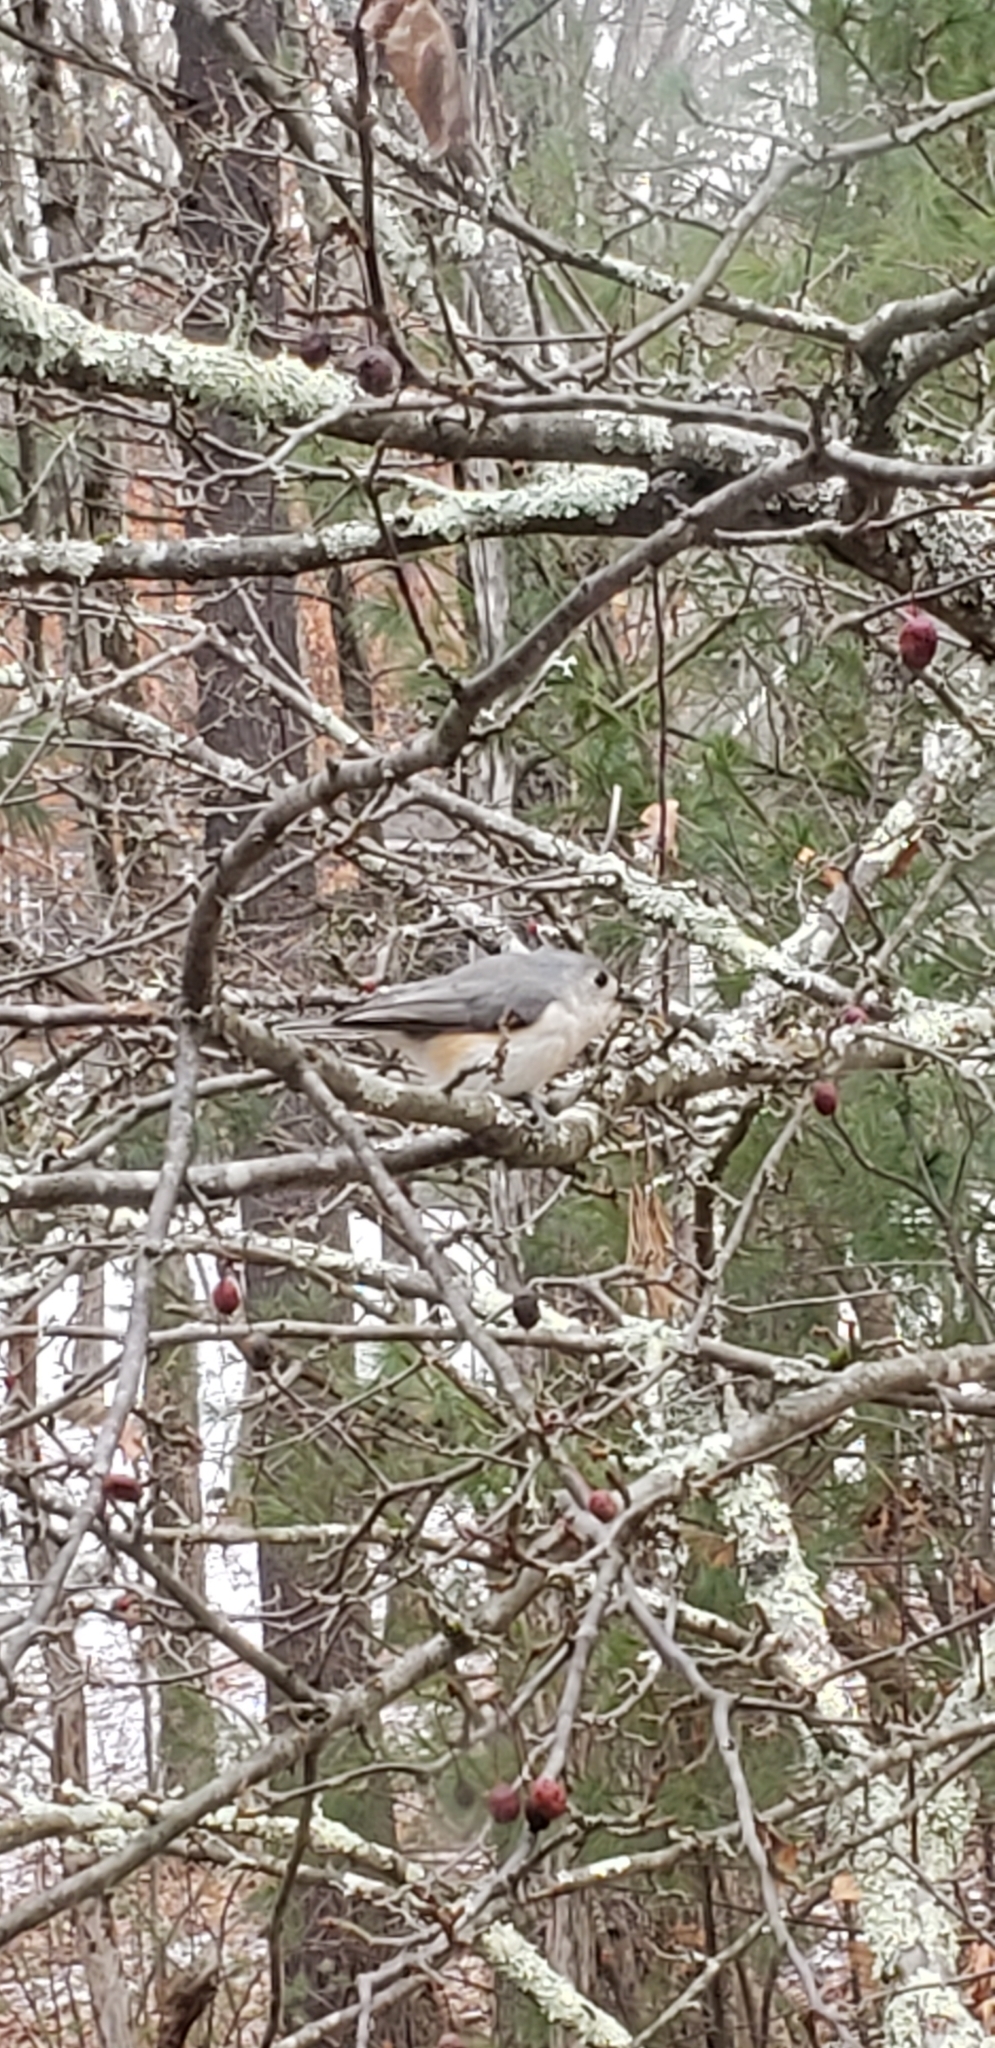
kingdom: Animalia
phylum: Chordata
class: Aves
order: Passeriformes
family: Paridae
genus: Baeolophus
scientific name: Baeolophus bicolor
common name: Tufted titmouse
